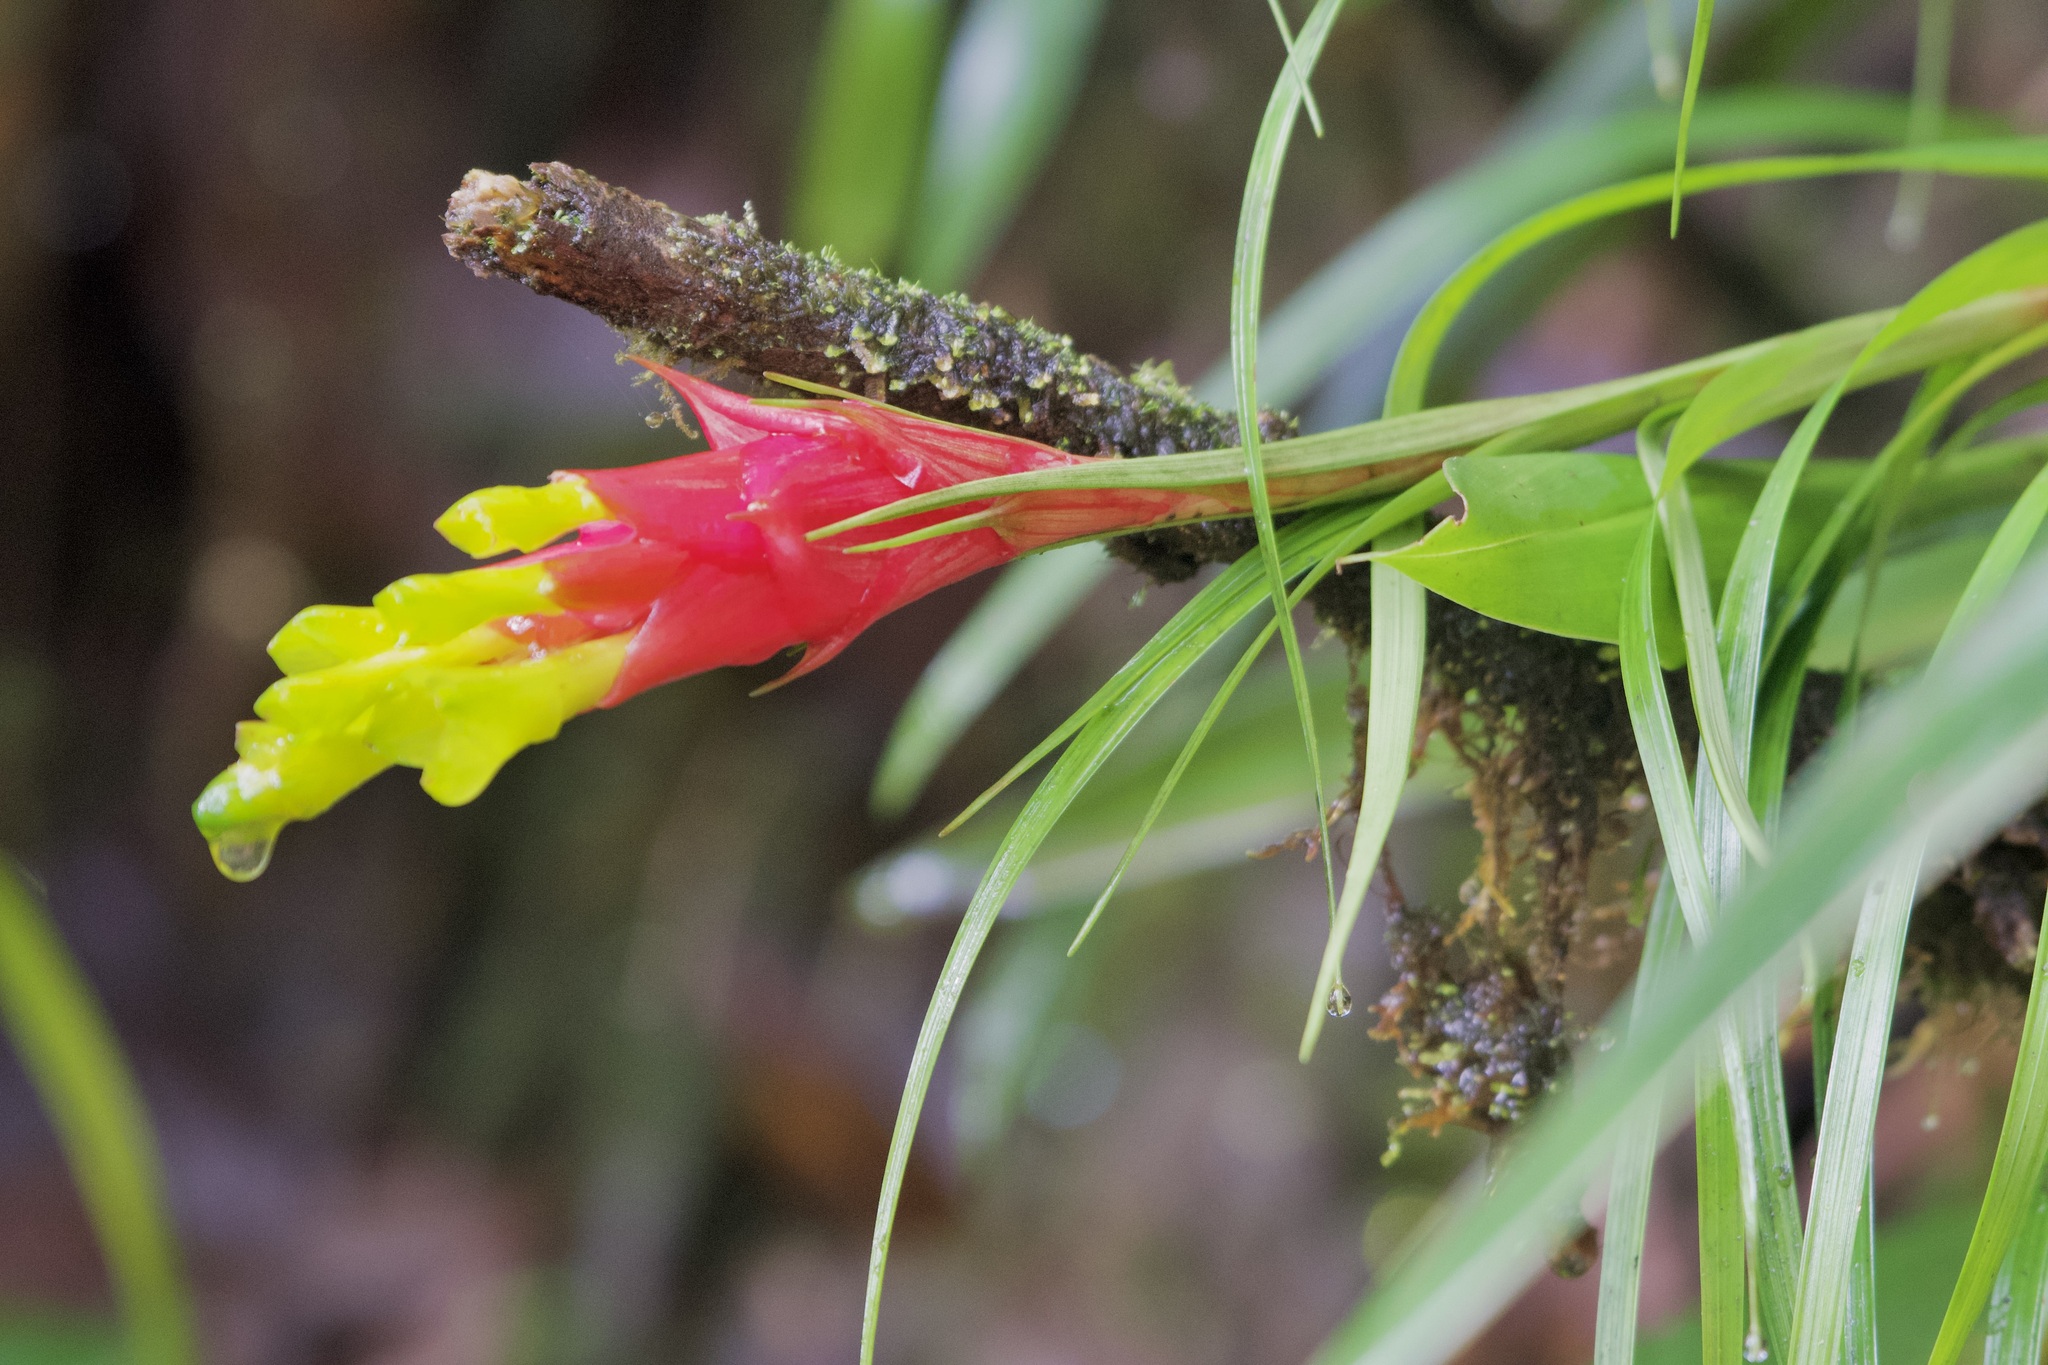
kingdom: Plantae
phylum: Tracheophyta
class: Liliopsida
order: Poales
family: Bromeliaceae
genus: Guzmania
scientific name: Guzmania pearcei
